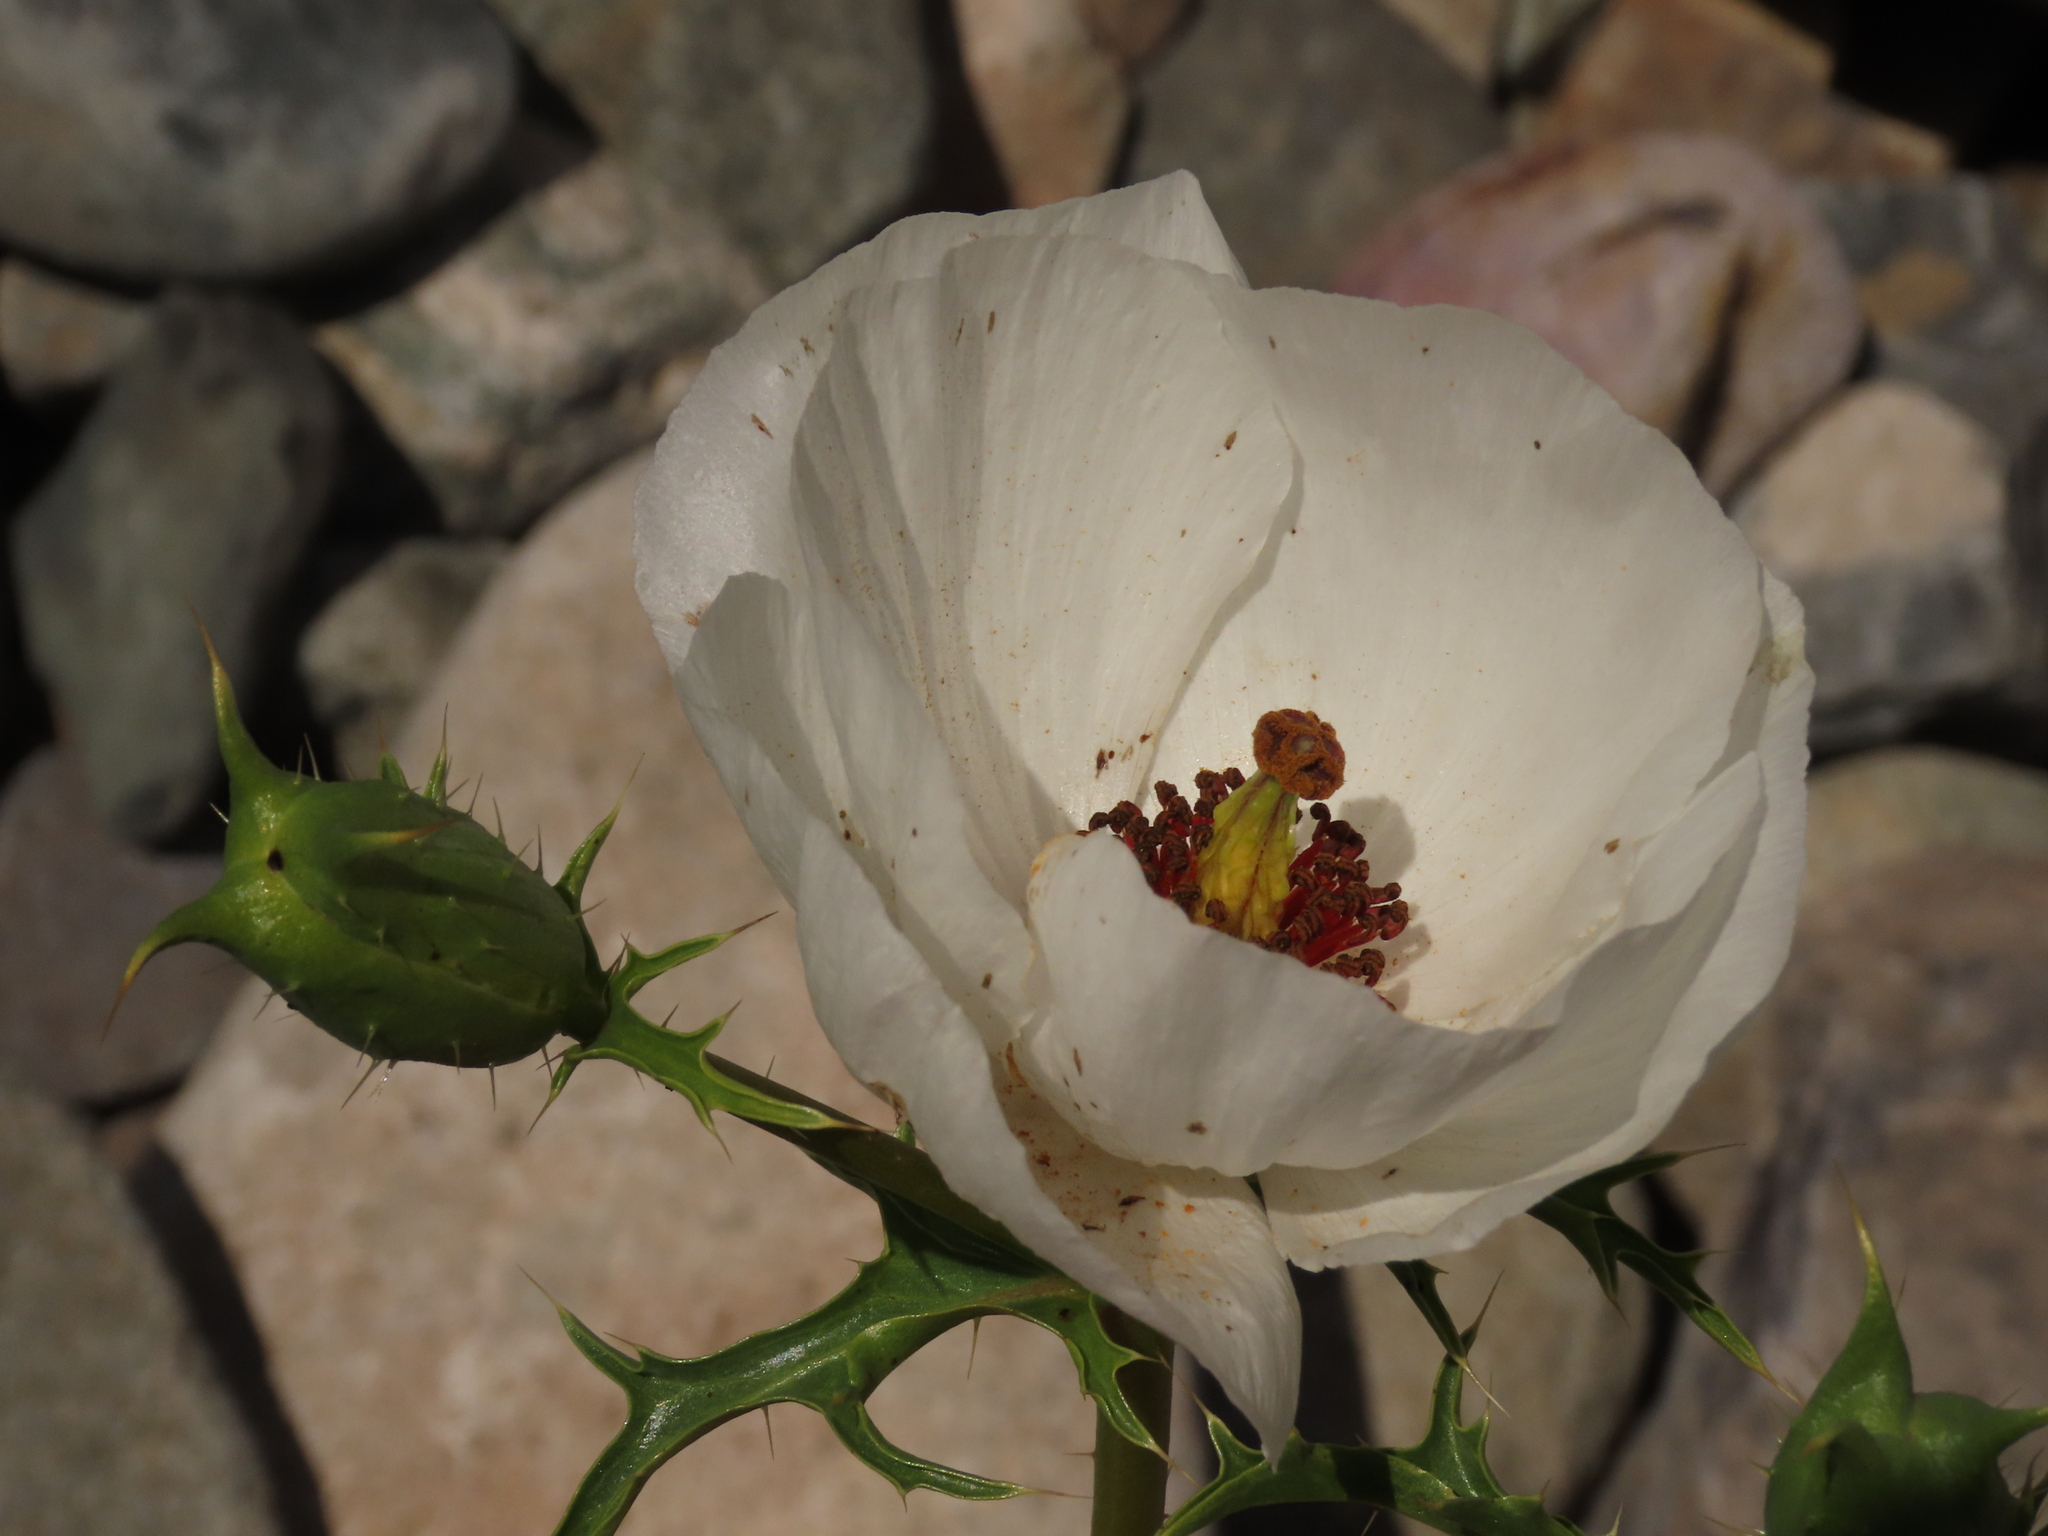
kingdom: Plantae
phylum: Tracheophyta
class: Magnoliopsida
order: Ranunculales
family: Papaveraceae
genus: Argemone
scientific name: Argemone hunnemannii
